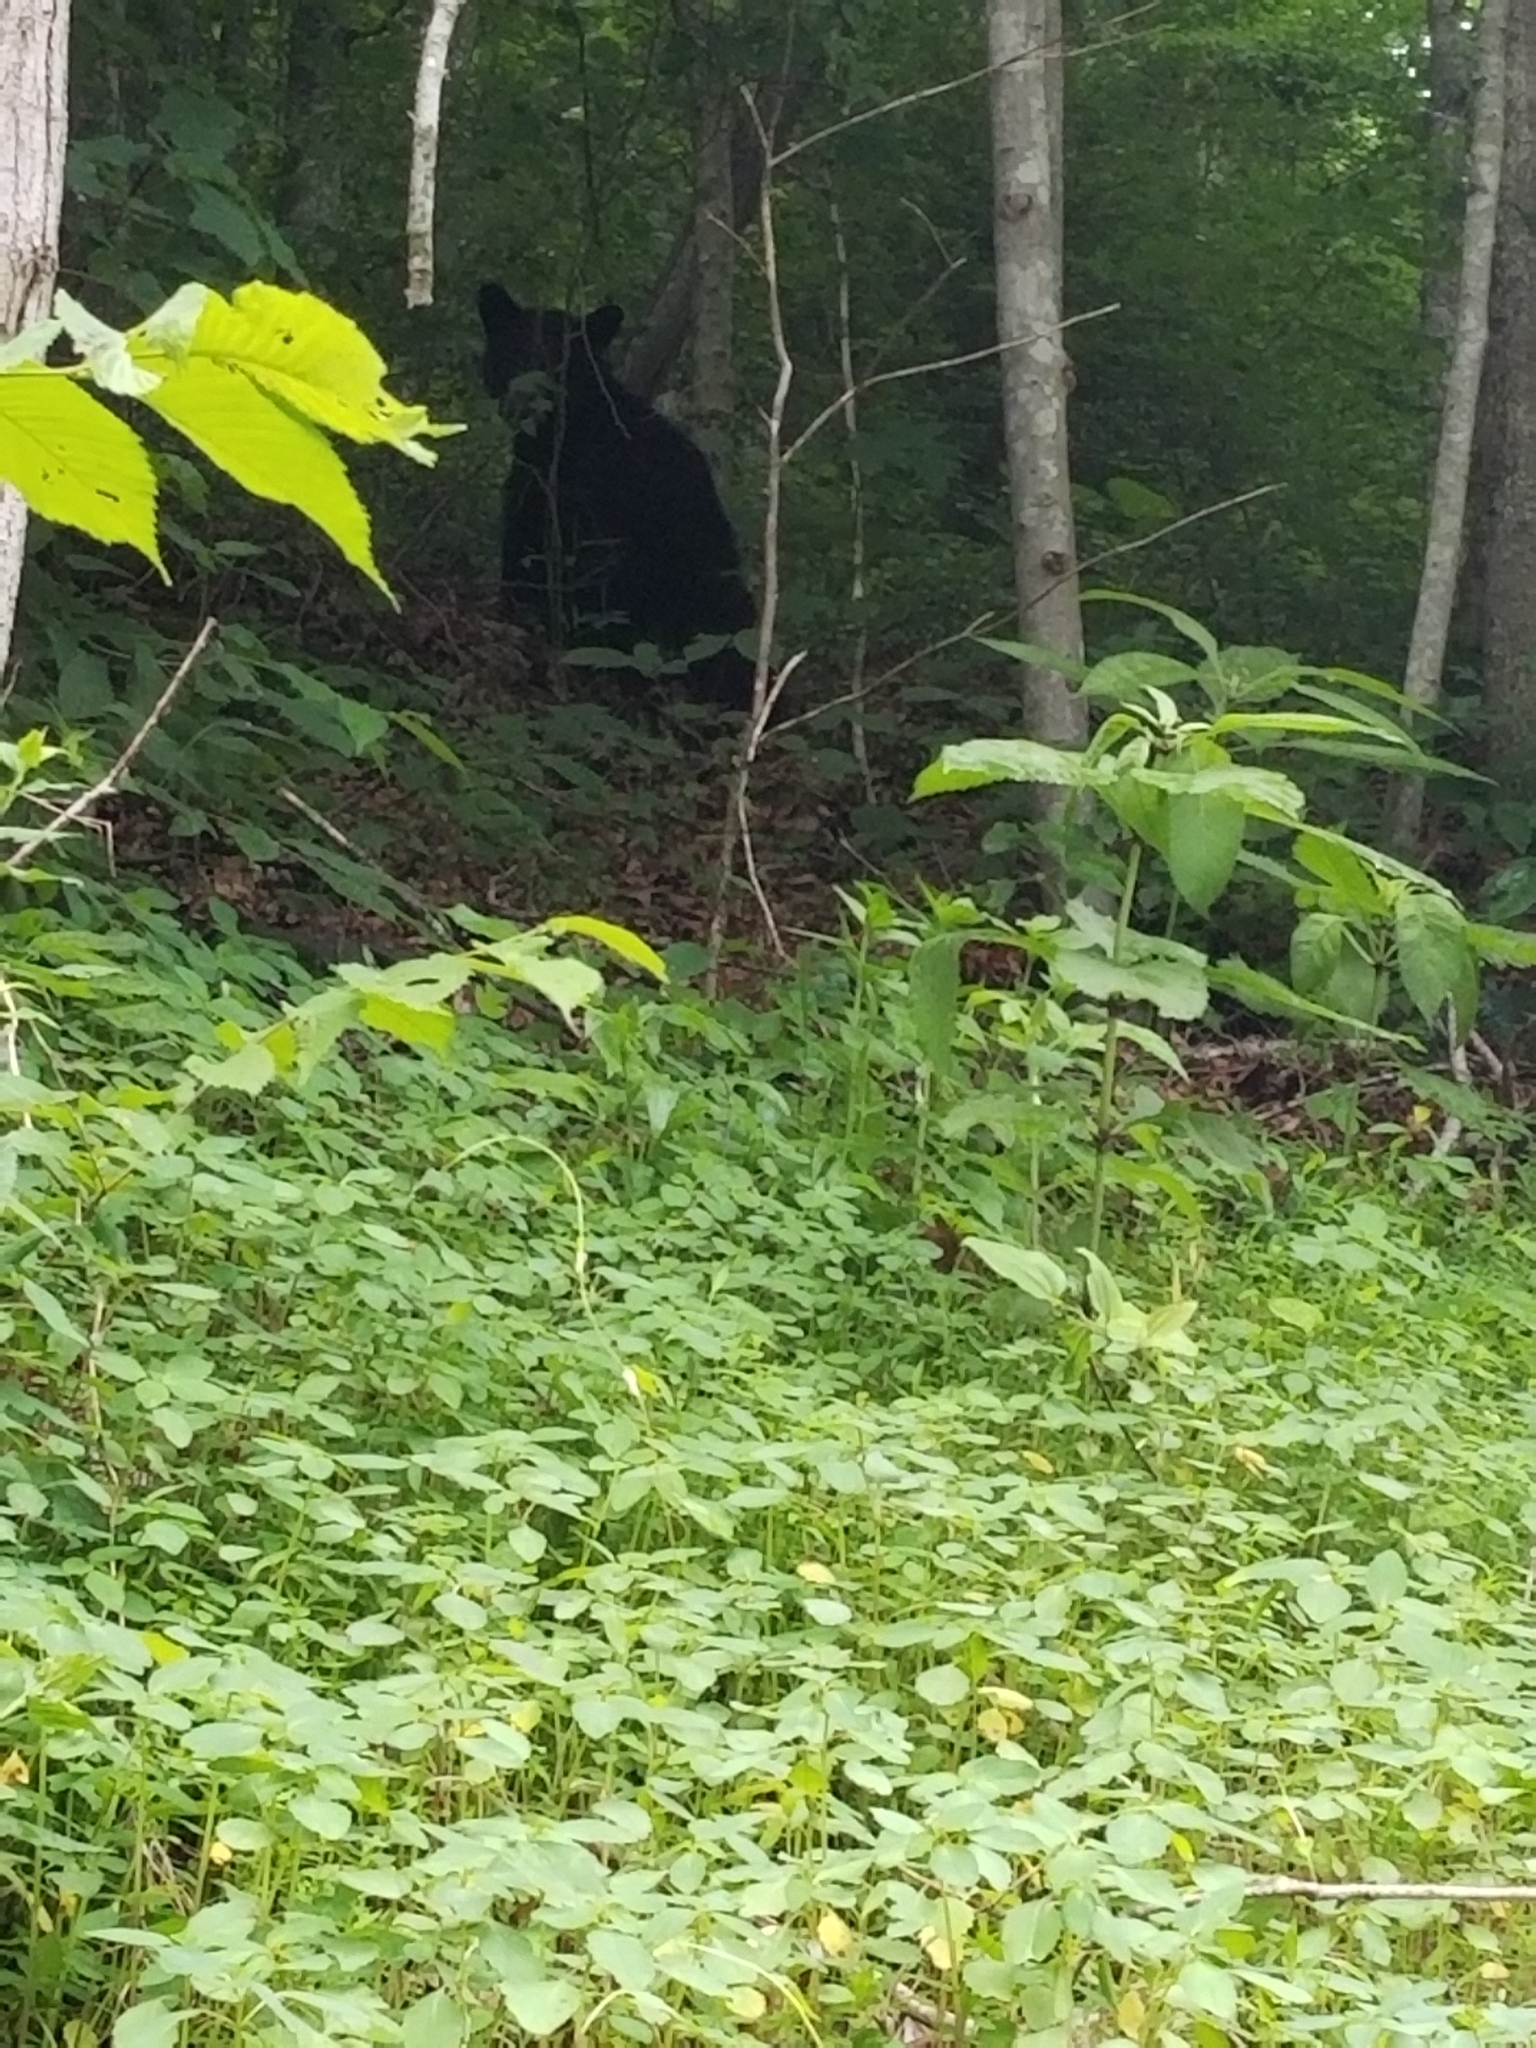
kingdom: Animalia
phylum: Chordata
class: Mammalia
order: Carnivora
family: Ursidae
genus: Ursus
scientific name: Ursus americanus
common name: American black bear
